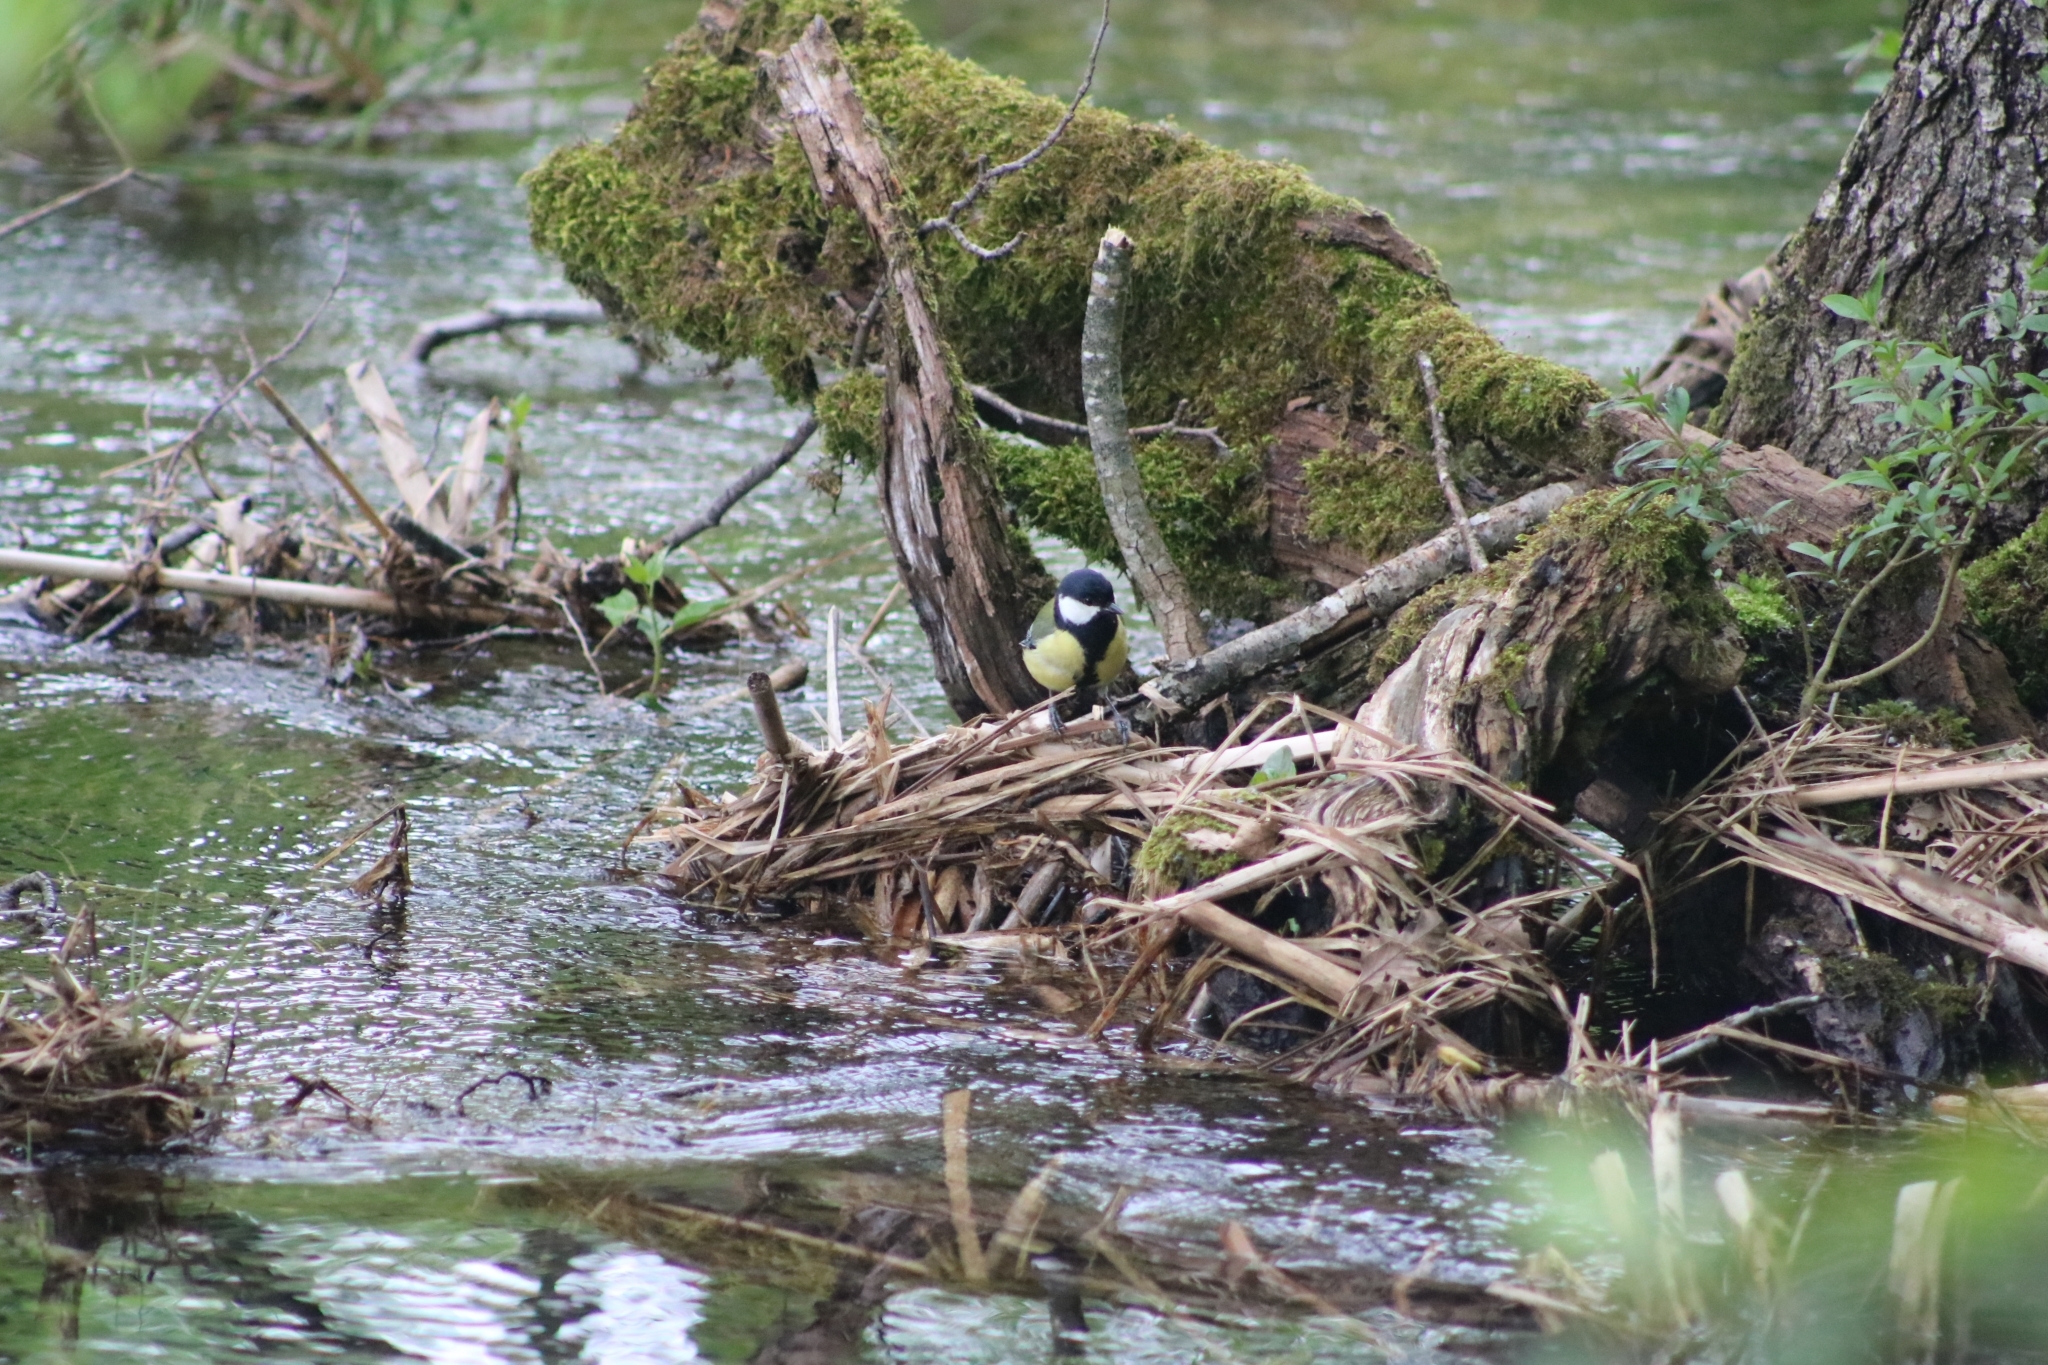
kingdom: Animalia
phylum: Chordata
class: Aves
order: Passeriformes
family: Paridae
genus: Parus
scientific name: Parus major
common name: Great tit
